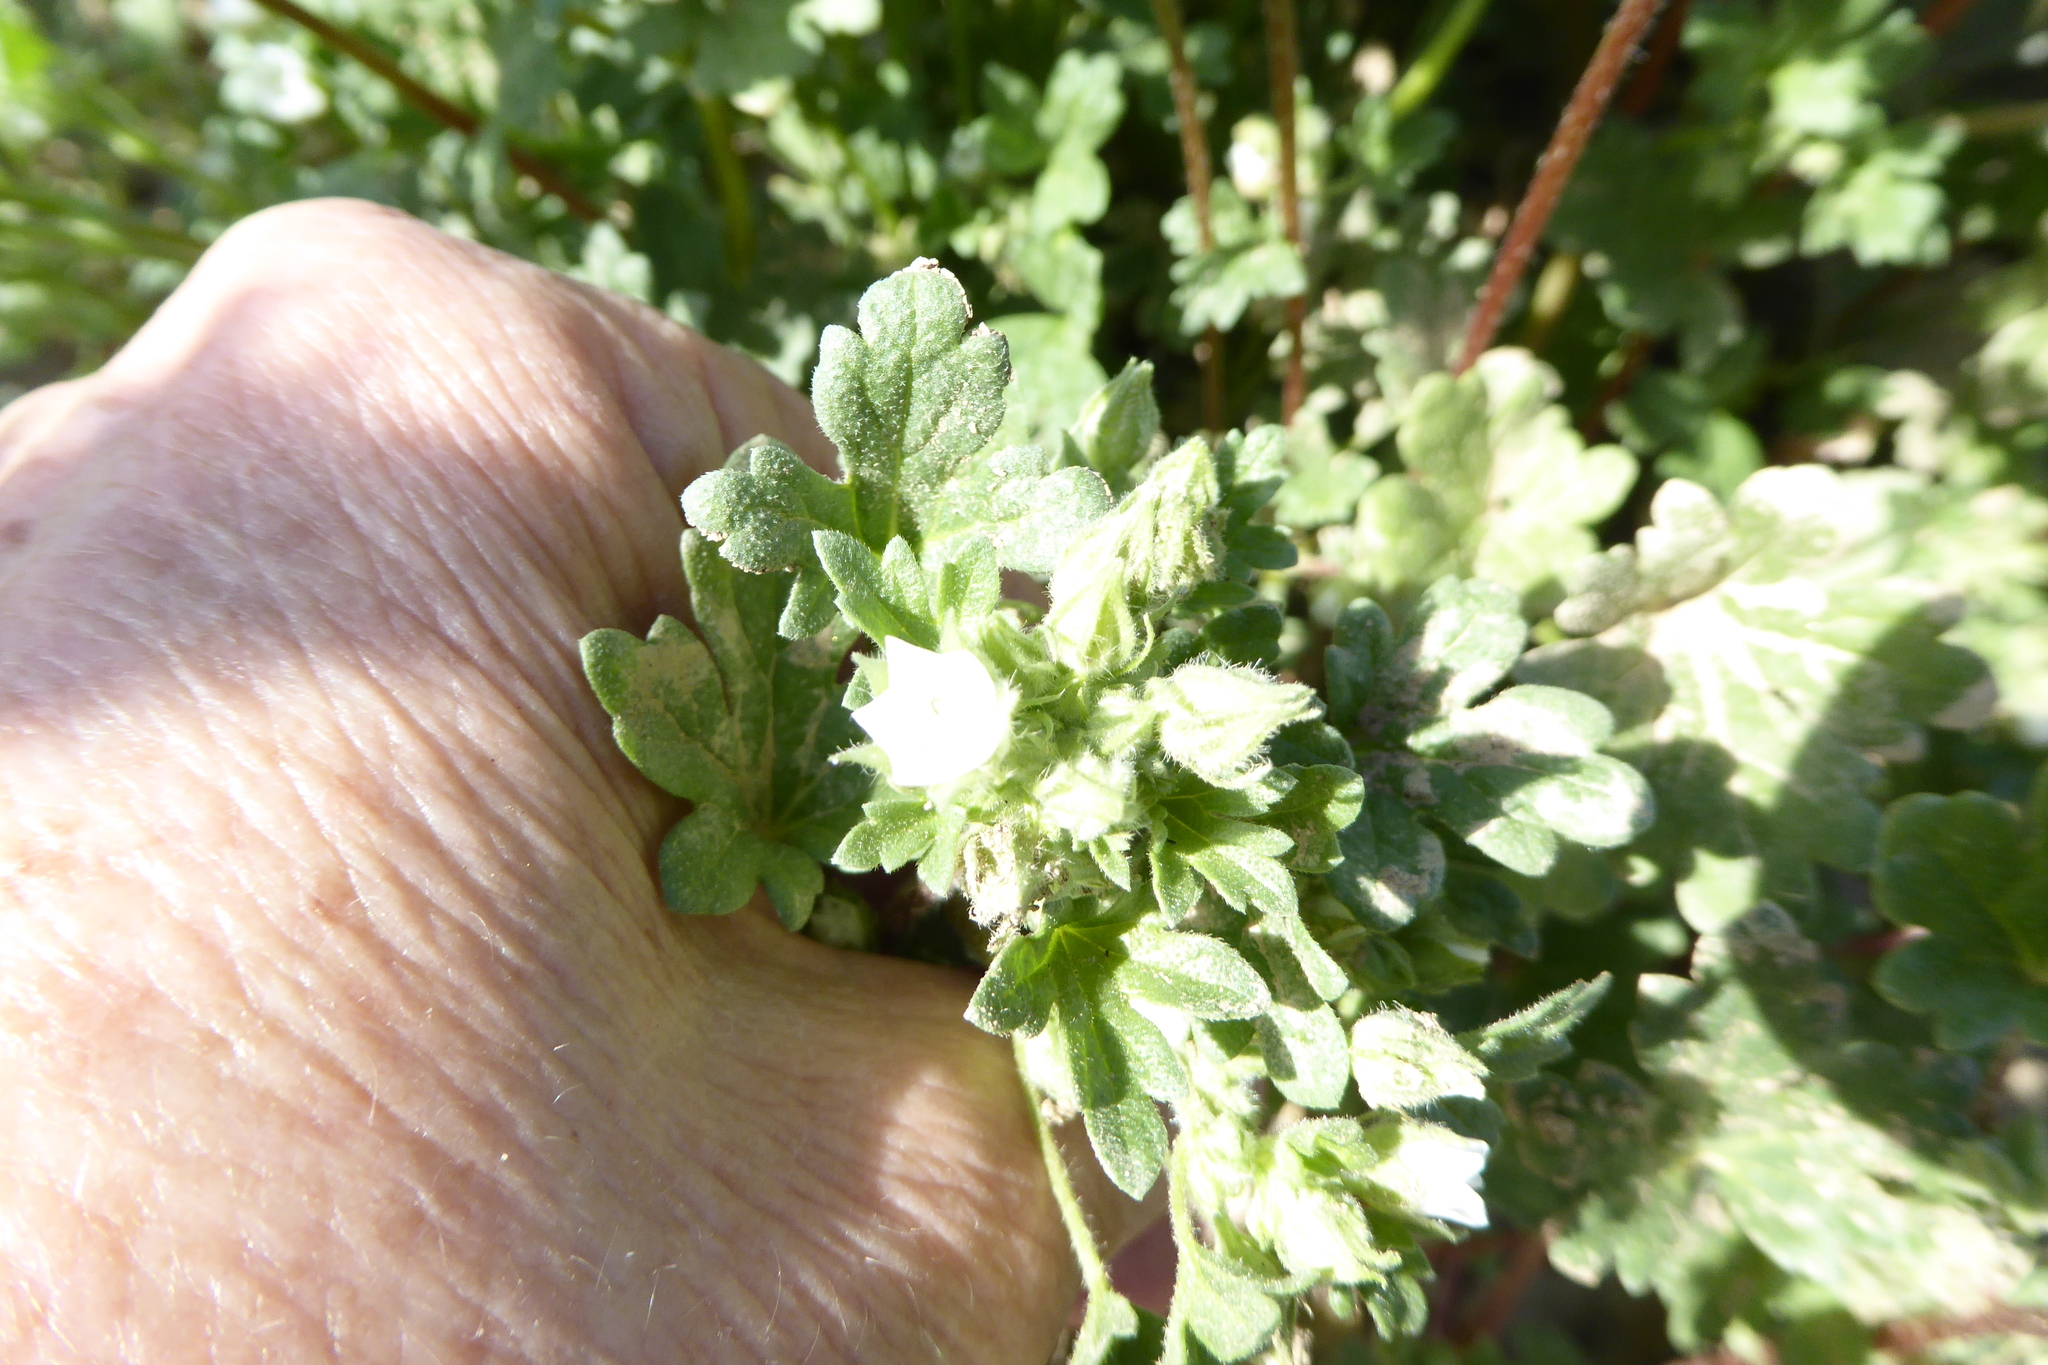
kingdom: Plantae
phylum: Tracheophyta
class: Magnoliopsida
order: Malvales
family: Malvaceae
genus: Eremalche
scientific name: Eremalche exilis
